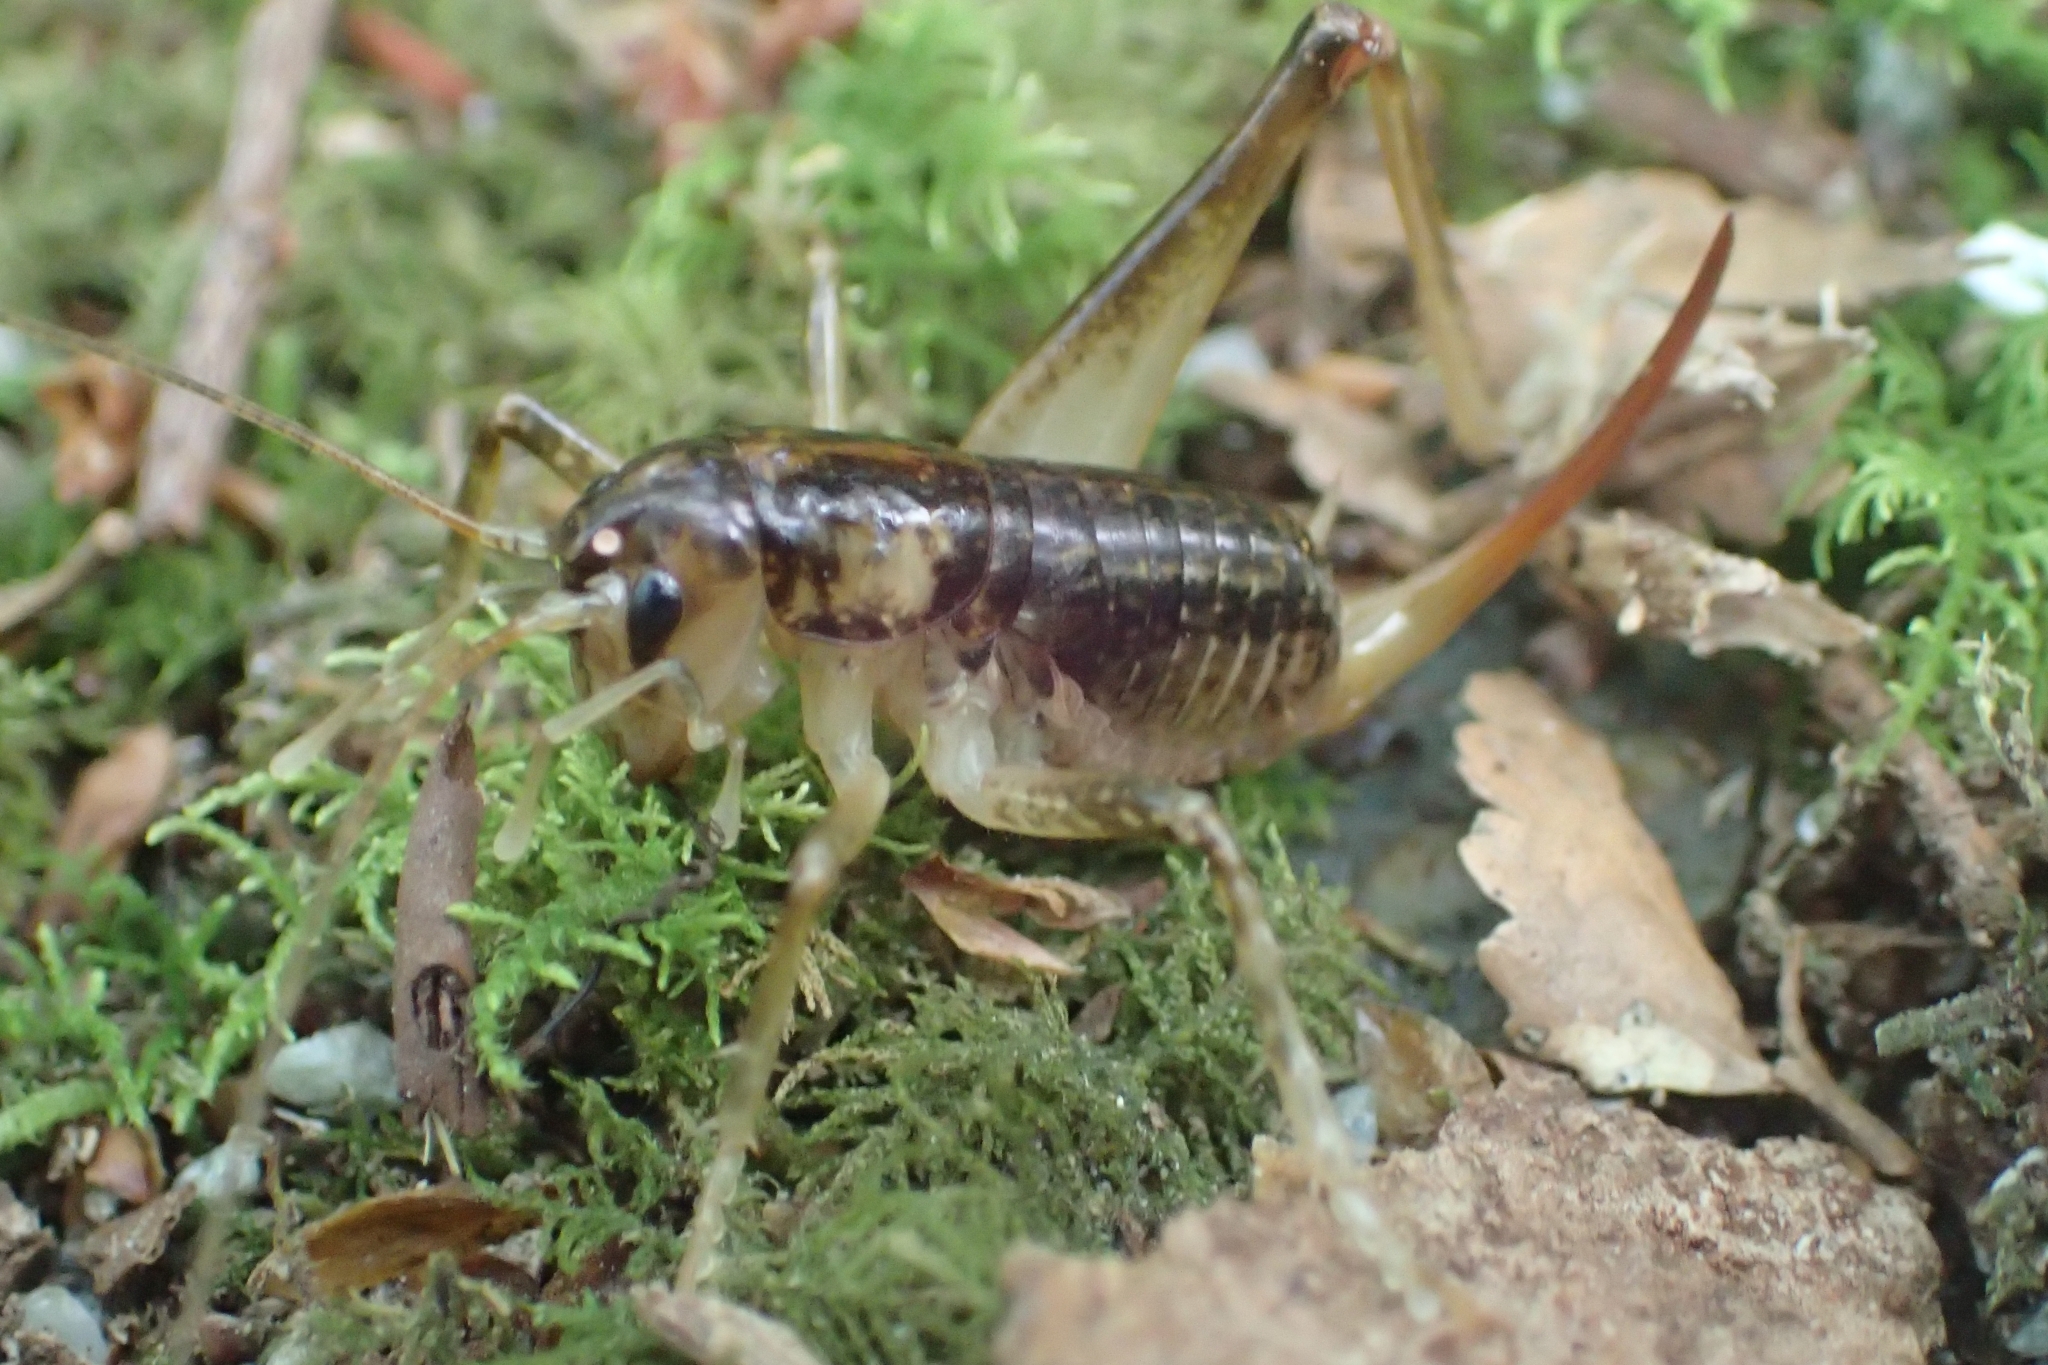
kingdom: Animalia
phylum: Arthropoda
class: Insecta
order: Orthoptera
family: Anostostomatidae
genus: Hemiandrus
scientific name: Hemiandrus maculifrons
